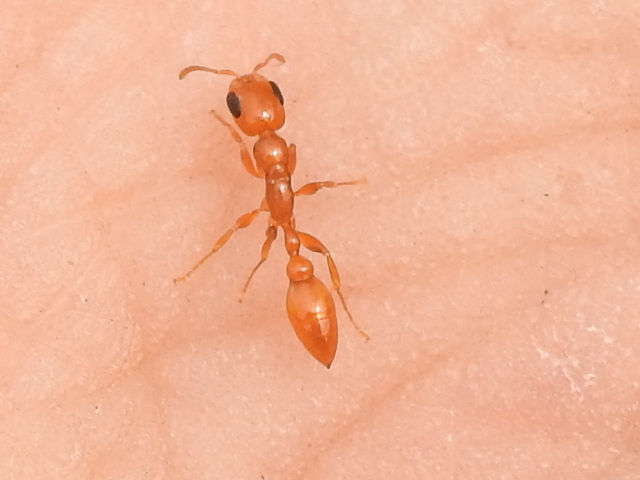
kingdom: Animalia
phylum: Arthropoda
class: Insecta
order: Hymenoptera
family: Formicidae
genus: Pseudomyrmex
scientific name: Pseudomyrmex pallidus
